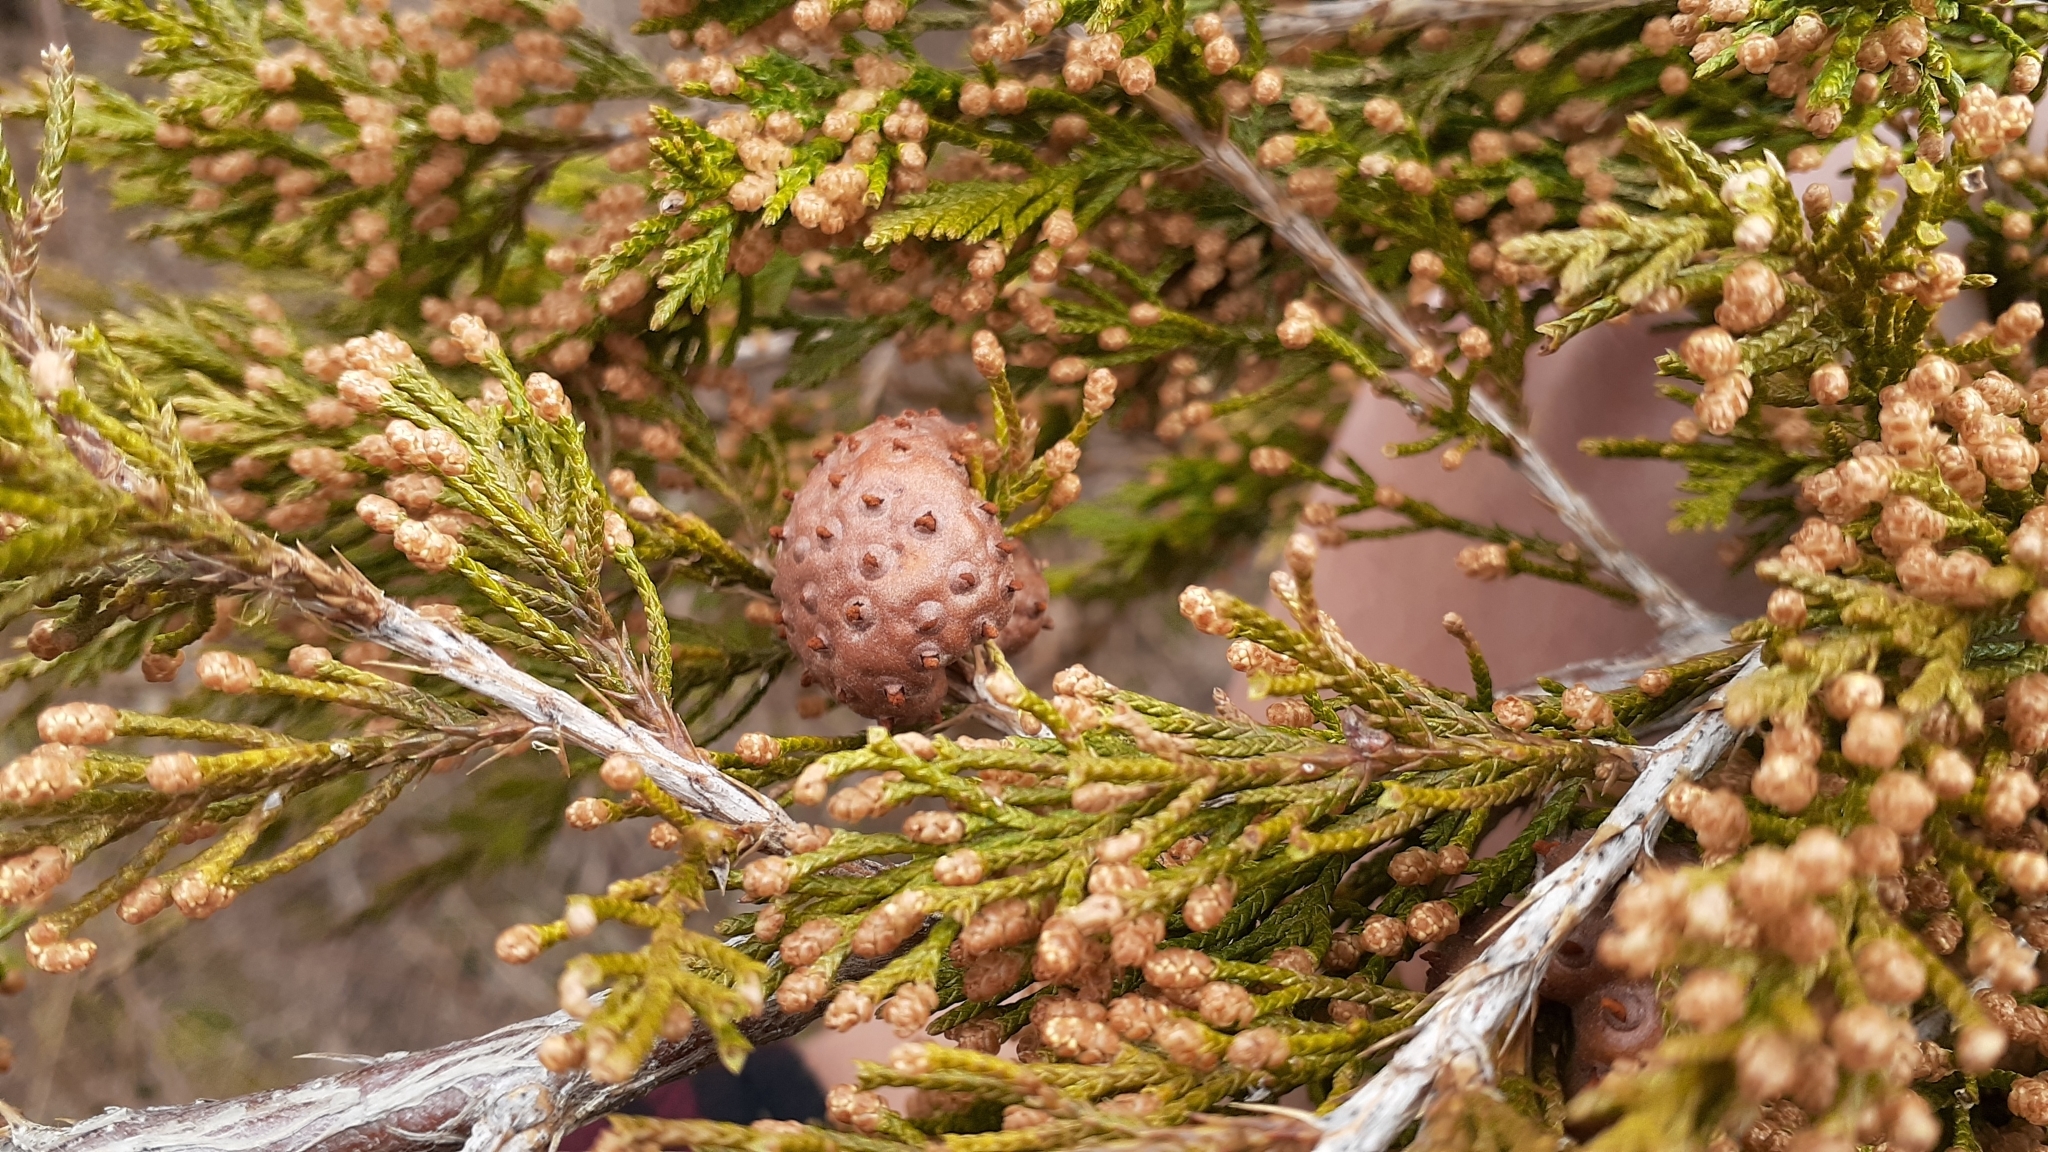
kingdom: Fungi
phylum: Basidiomycota
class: Pucciniomycetes
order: Pucciniales
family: Gymnosporangiaceae
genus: Gymnosporangium
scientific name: Gymnosporangium juniperi-virginianae
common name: Juniper-apple rust
